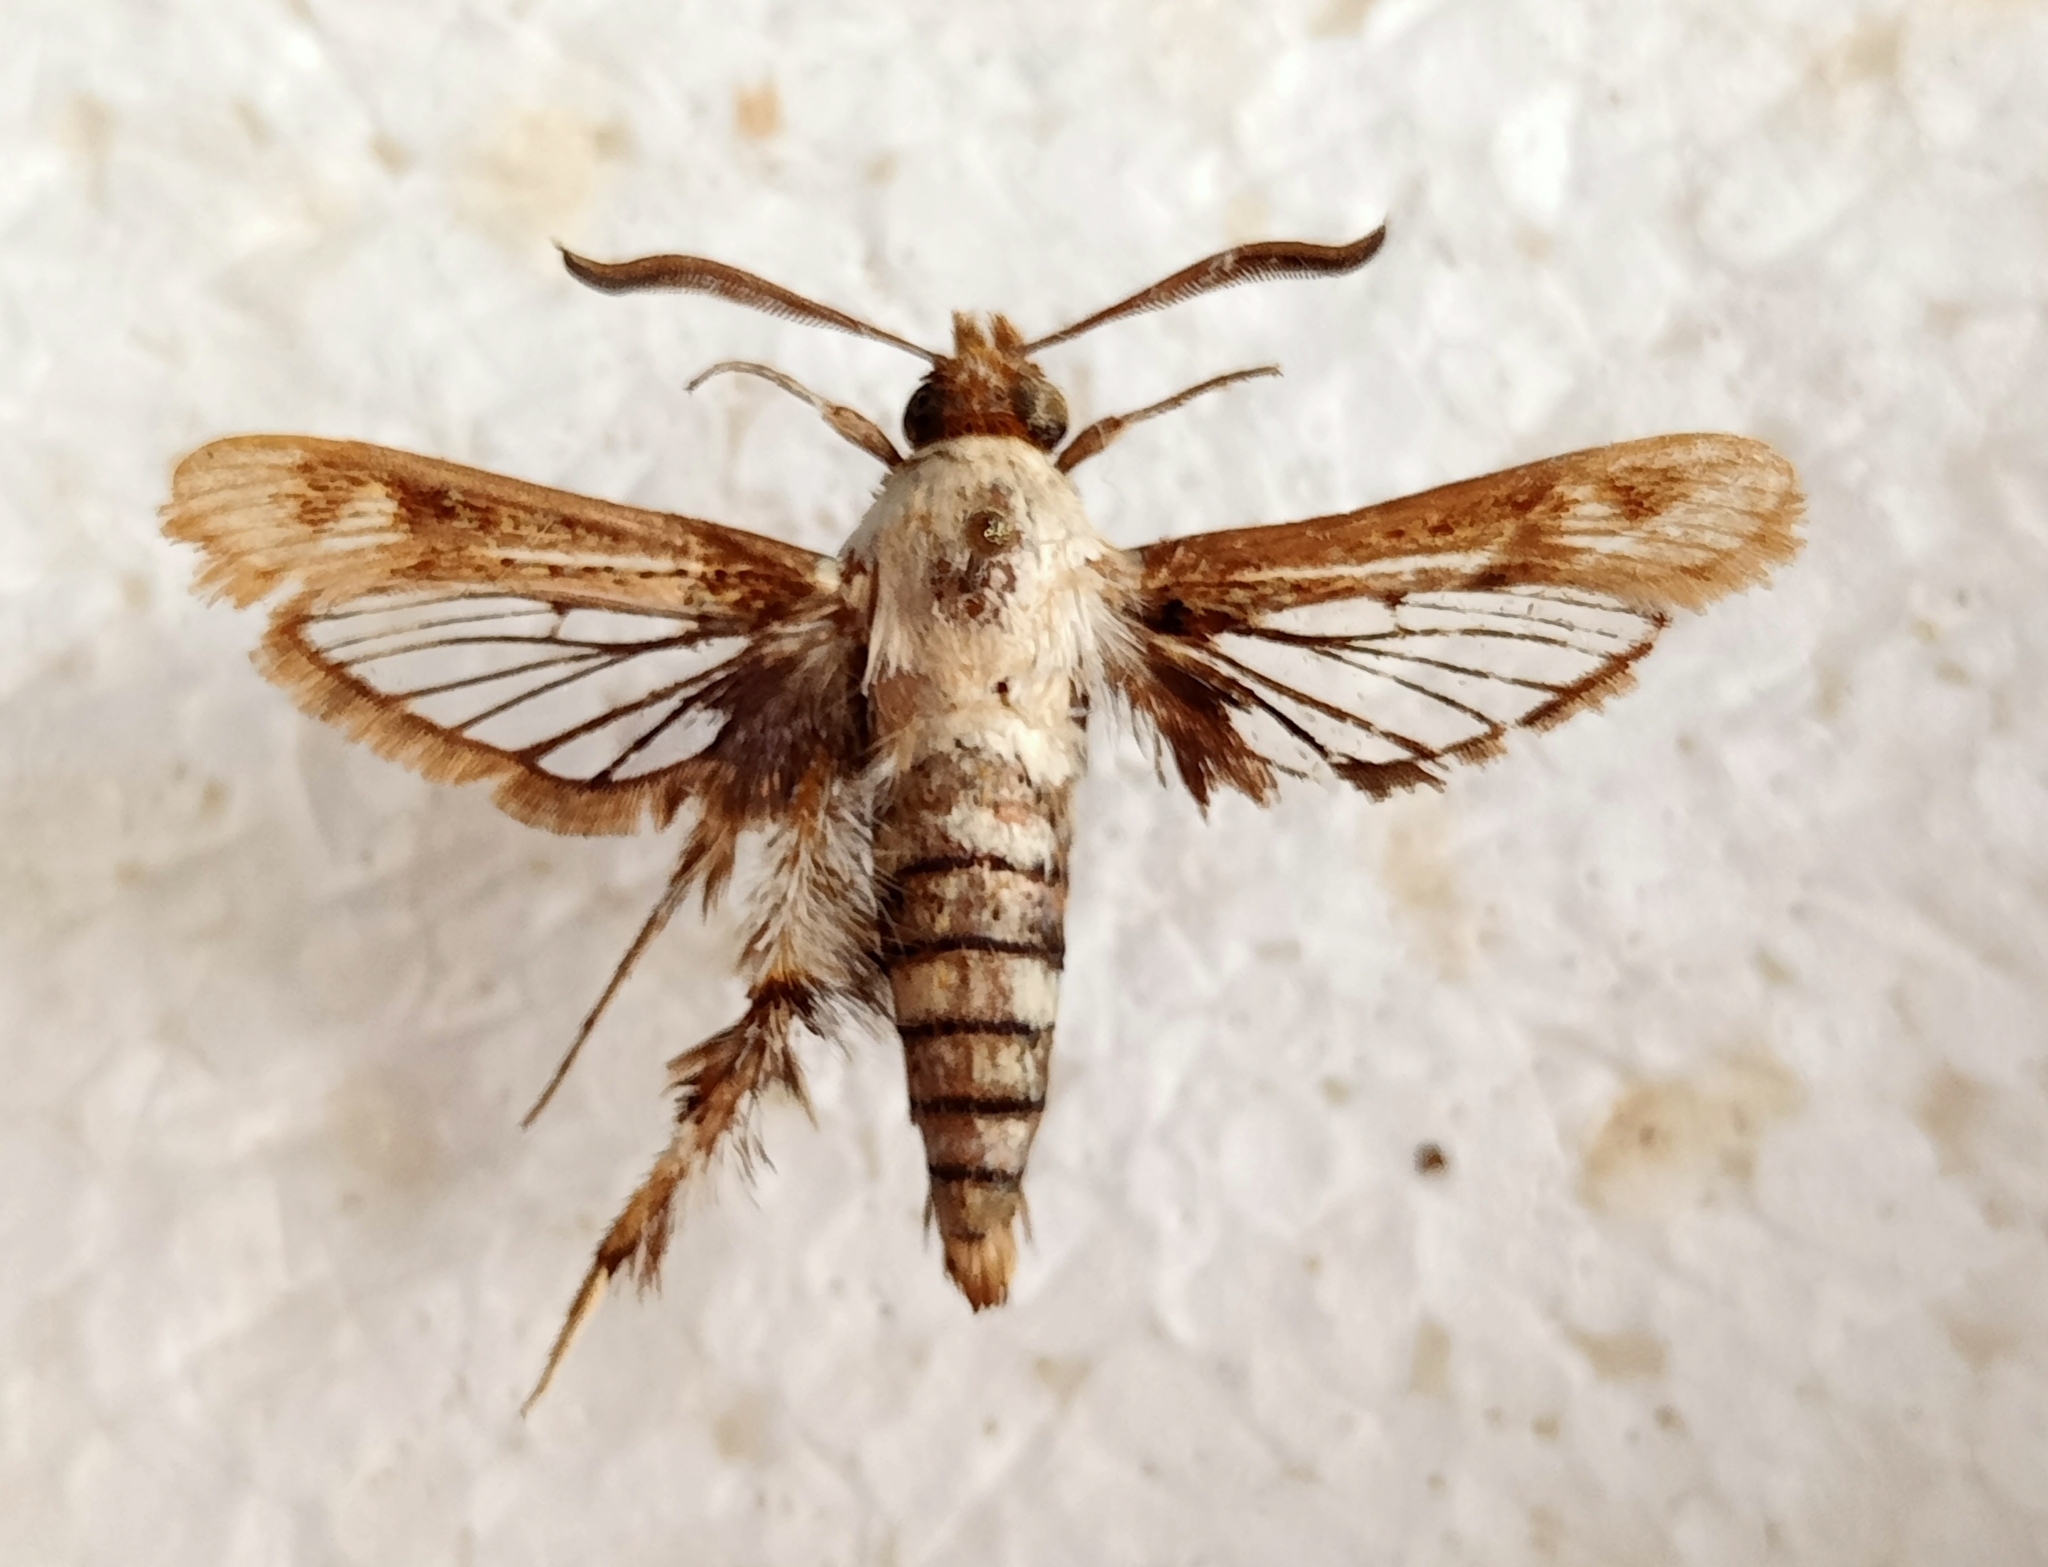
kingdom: Animalia
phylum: Arthropoda
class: Insecta
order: Lepidoptera
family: Sesiidae
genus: Afromelittia
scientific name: Afromelittia haematopis
